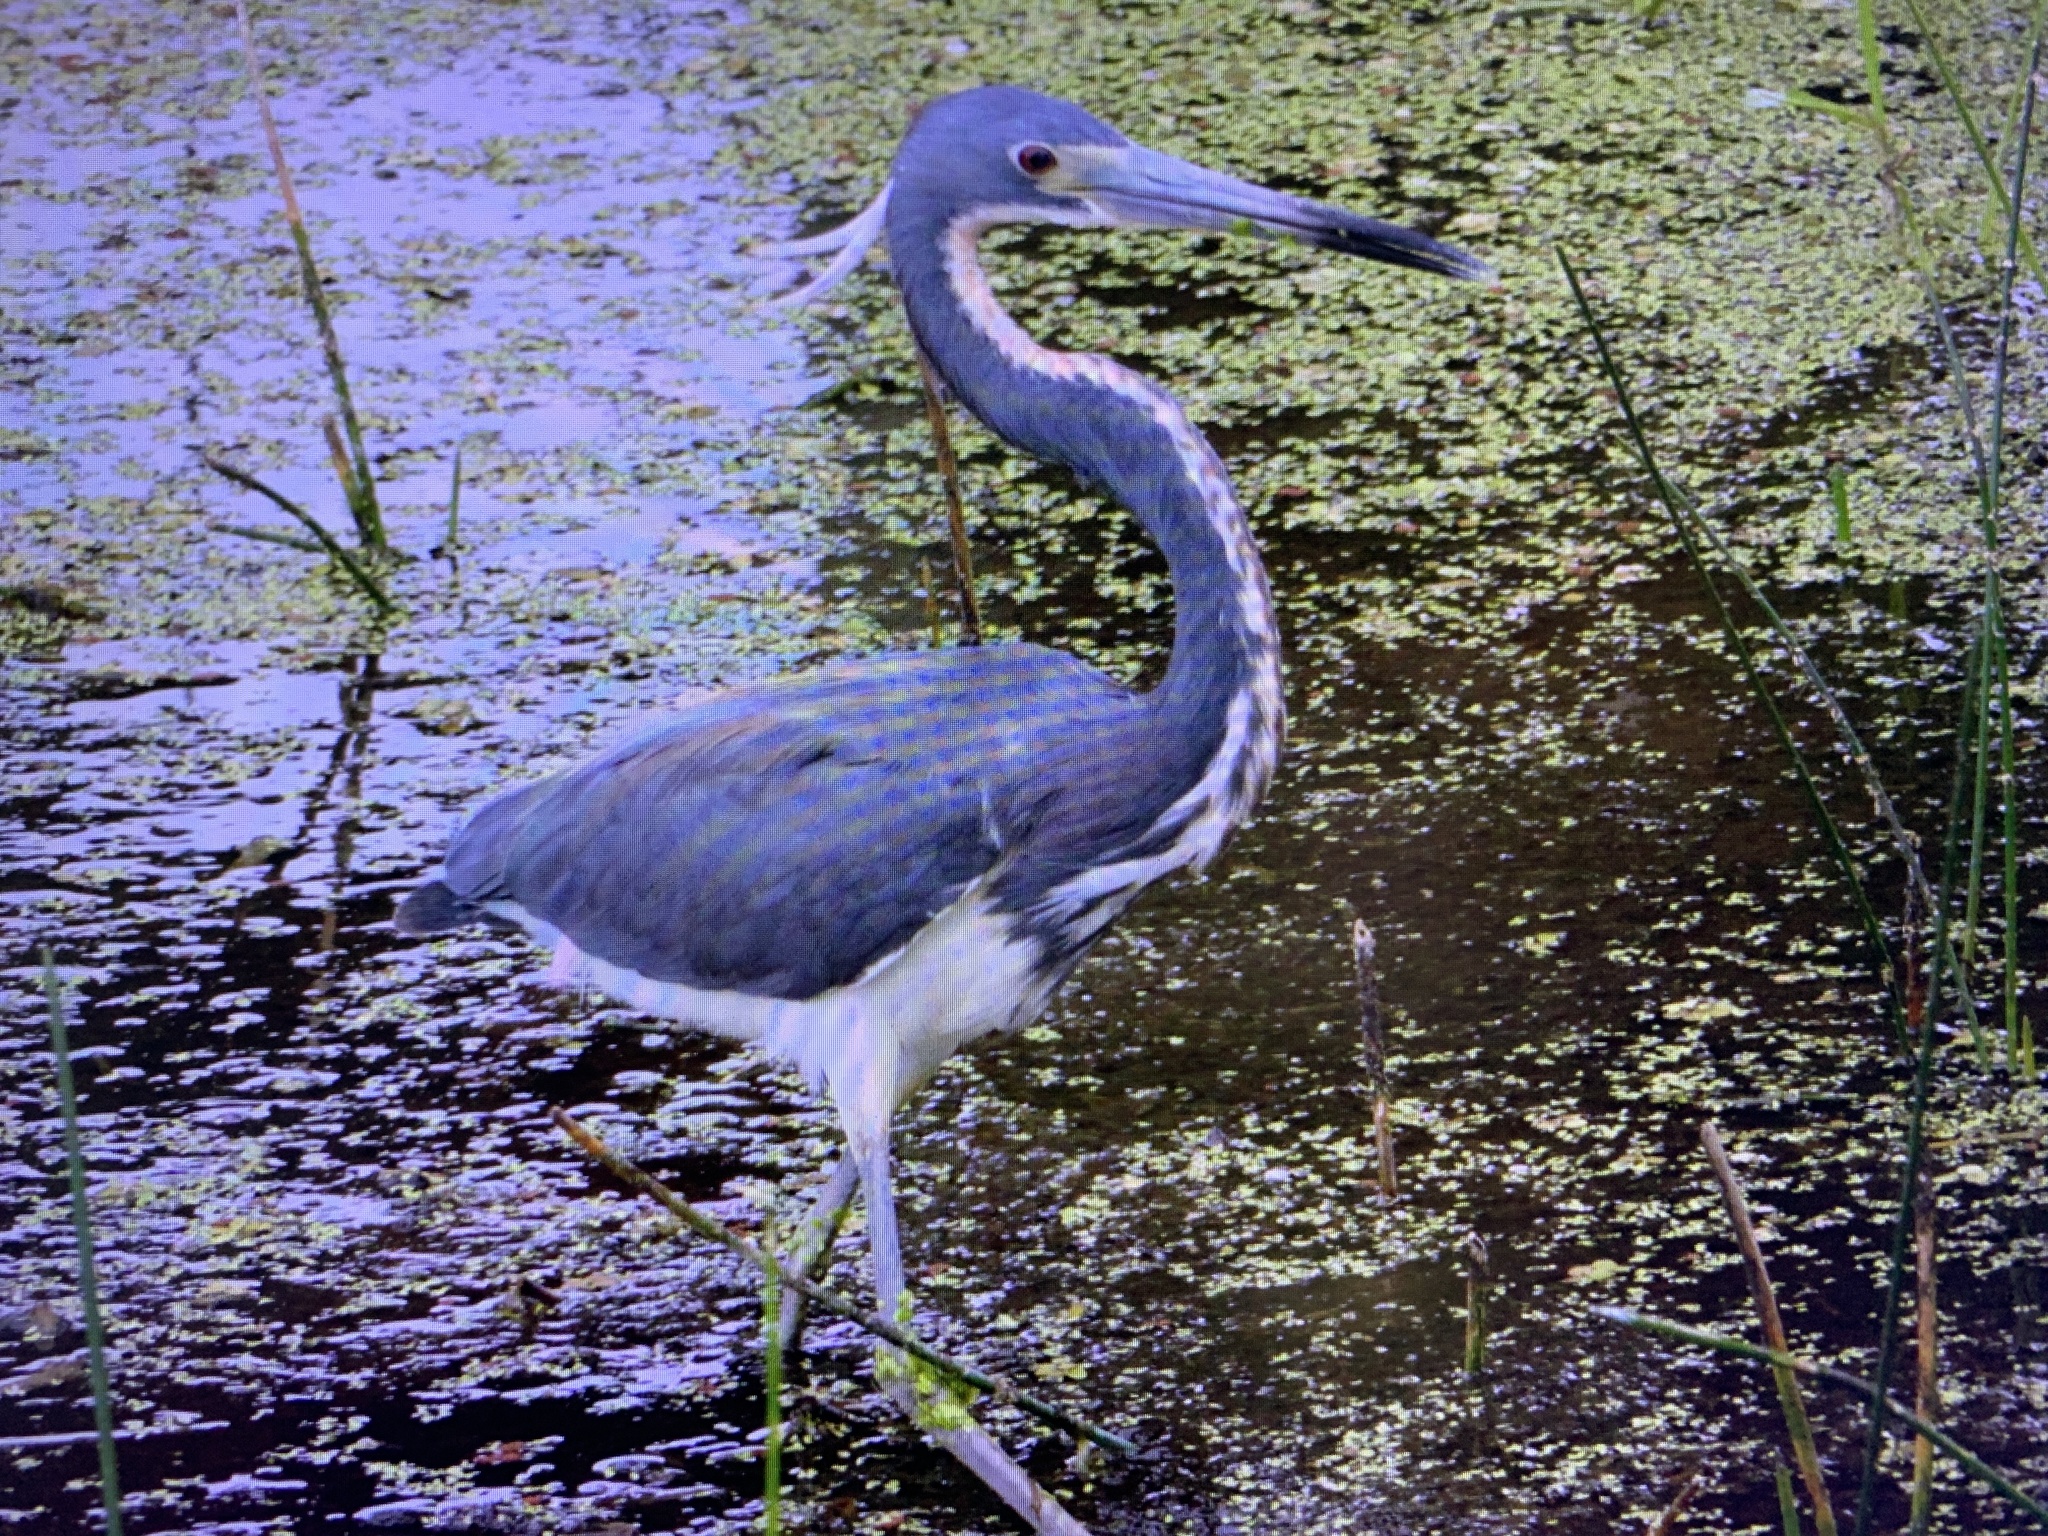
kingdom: Animalia
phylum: Chordata
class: Aves
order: Pelecaniformes
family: Ardeidae
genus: Egretta
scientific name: Egretta tricolor
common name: Tricolored heron
